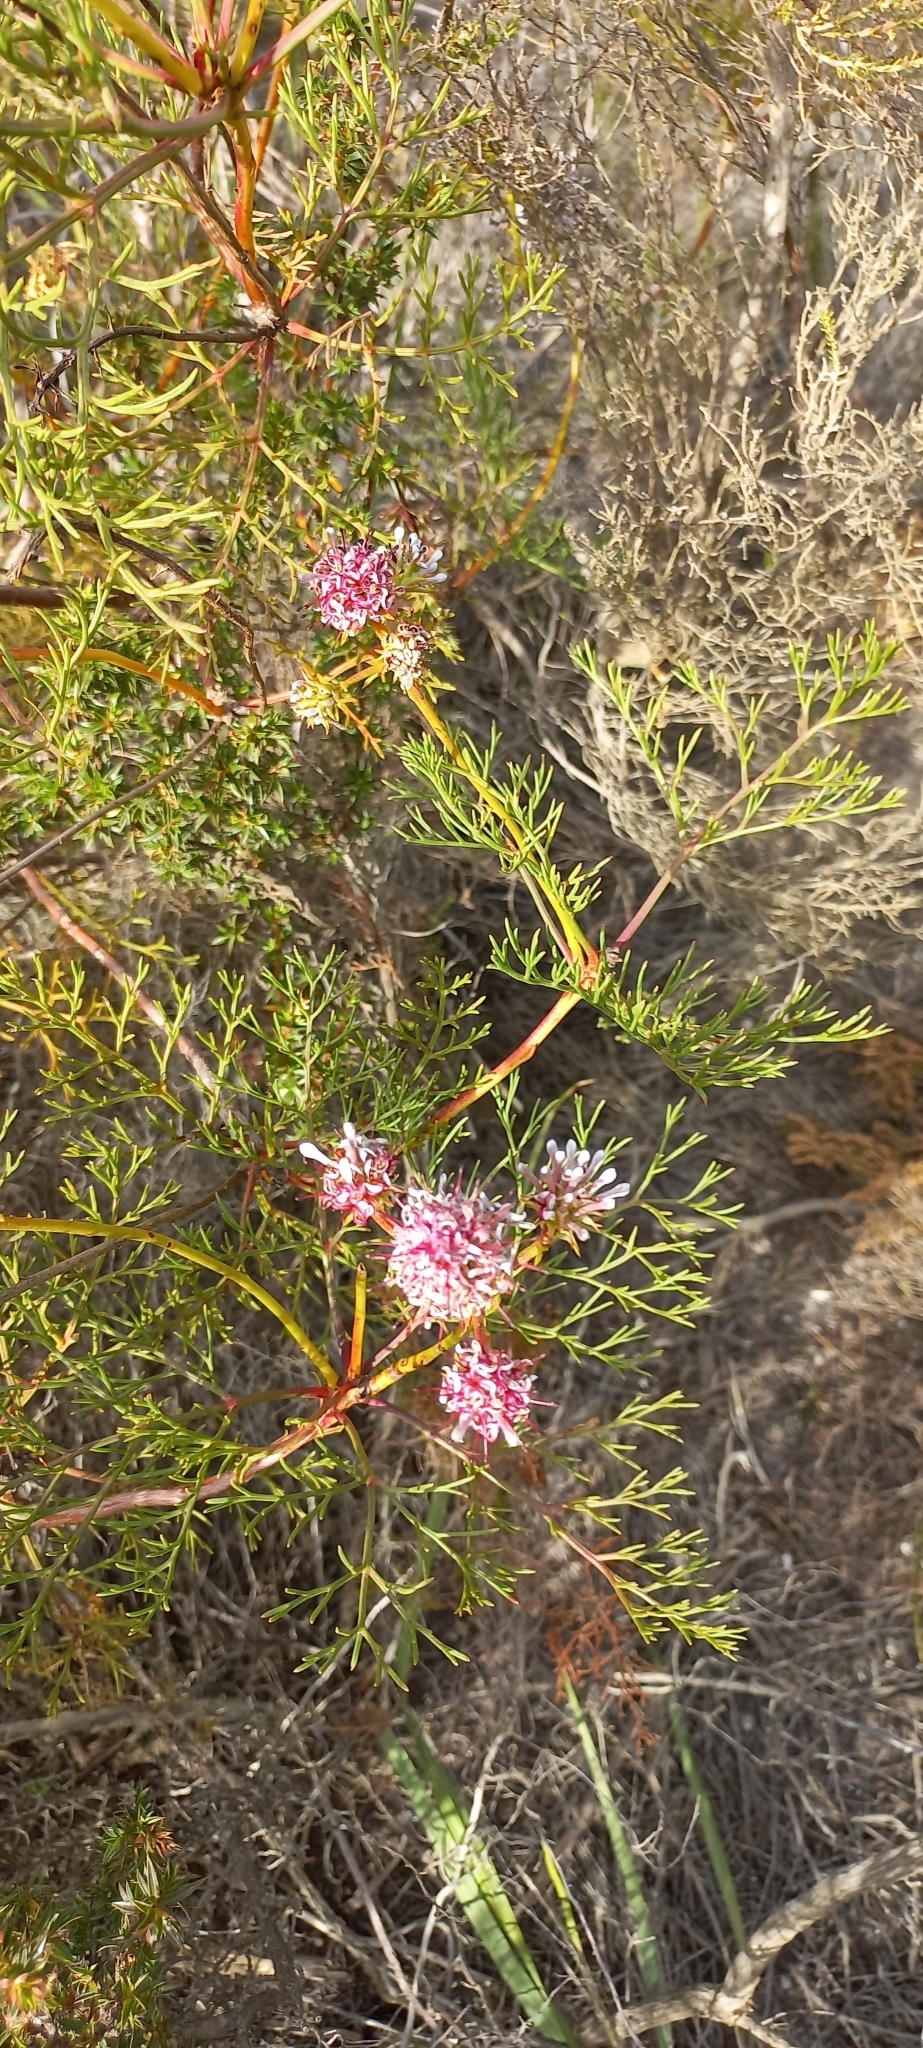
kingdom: Plantae
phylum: Tracheophyta
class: Magnoliopsida
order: Proteales
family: Proteaceae
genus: Serruria
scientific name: Serruria elongata
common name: Long-stalk spiderhead
